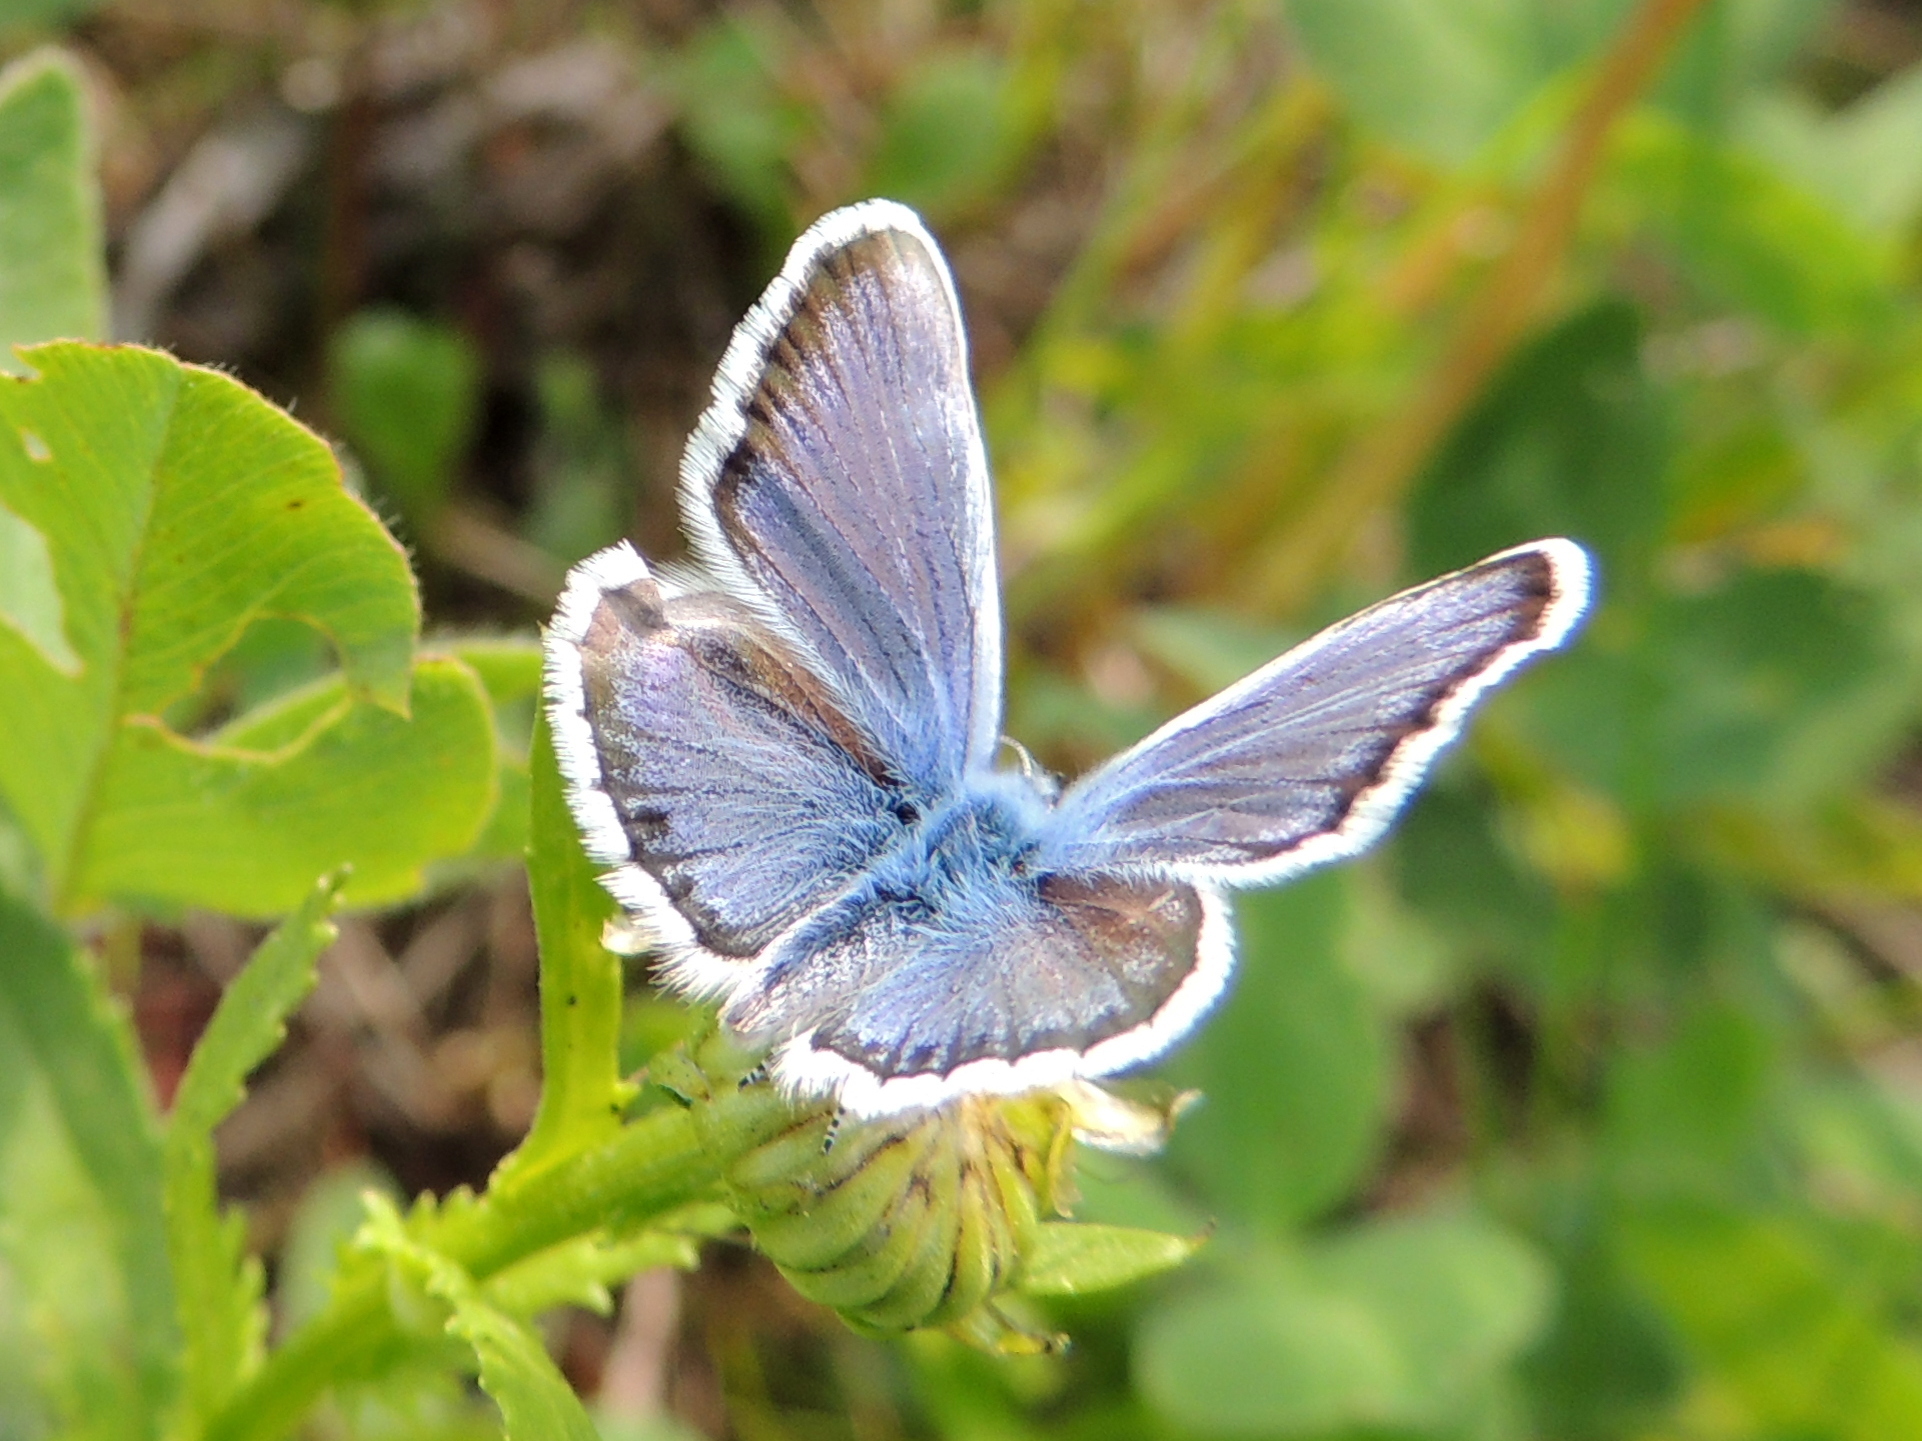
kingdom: Animalia
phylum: Arthropoda
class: Insecta
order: Lepidoptera
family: Lycaenidae
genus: Plebejus
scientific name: Plebejus argus
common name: Silver-studded blue
